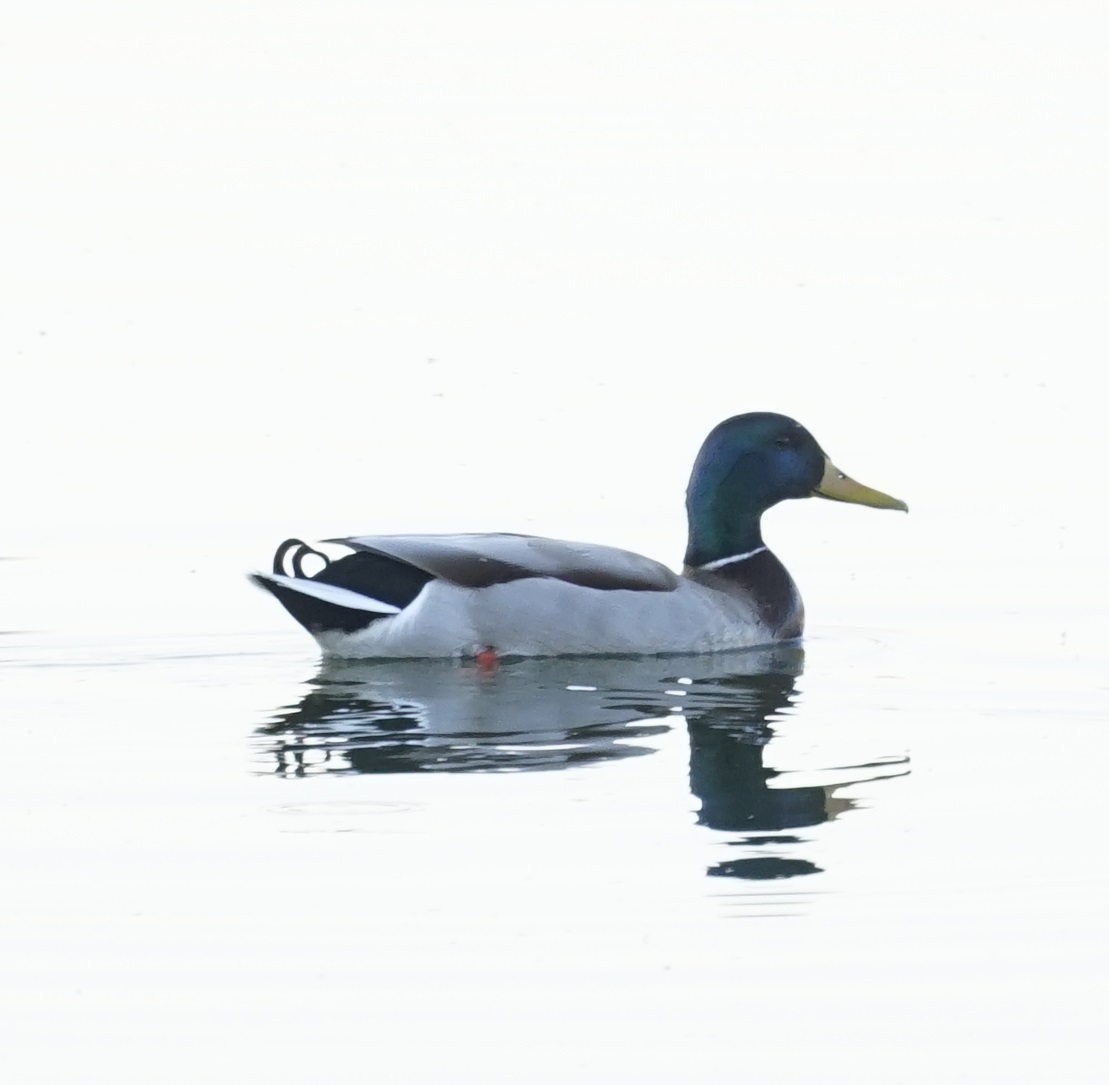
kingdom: Animalia
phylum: Chordata
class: Aves
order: Anseriformes
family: Anatidae
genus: Anas
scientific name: Anas platyrhynchos
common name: Mallard
